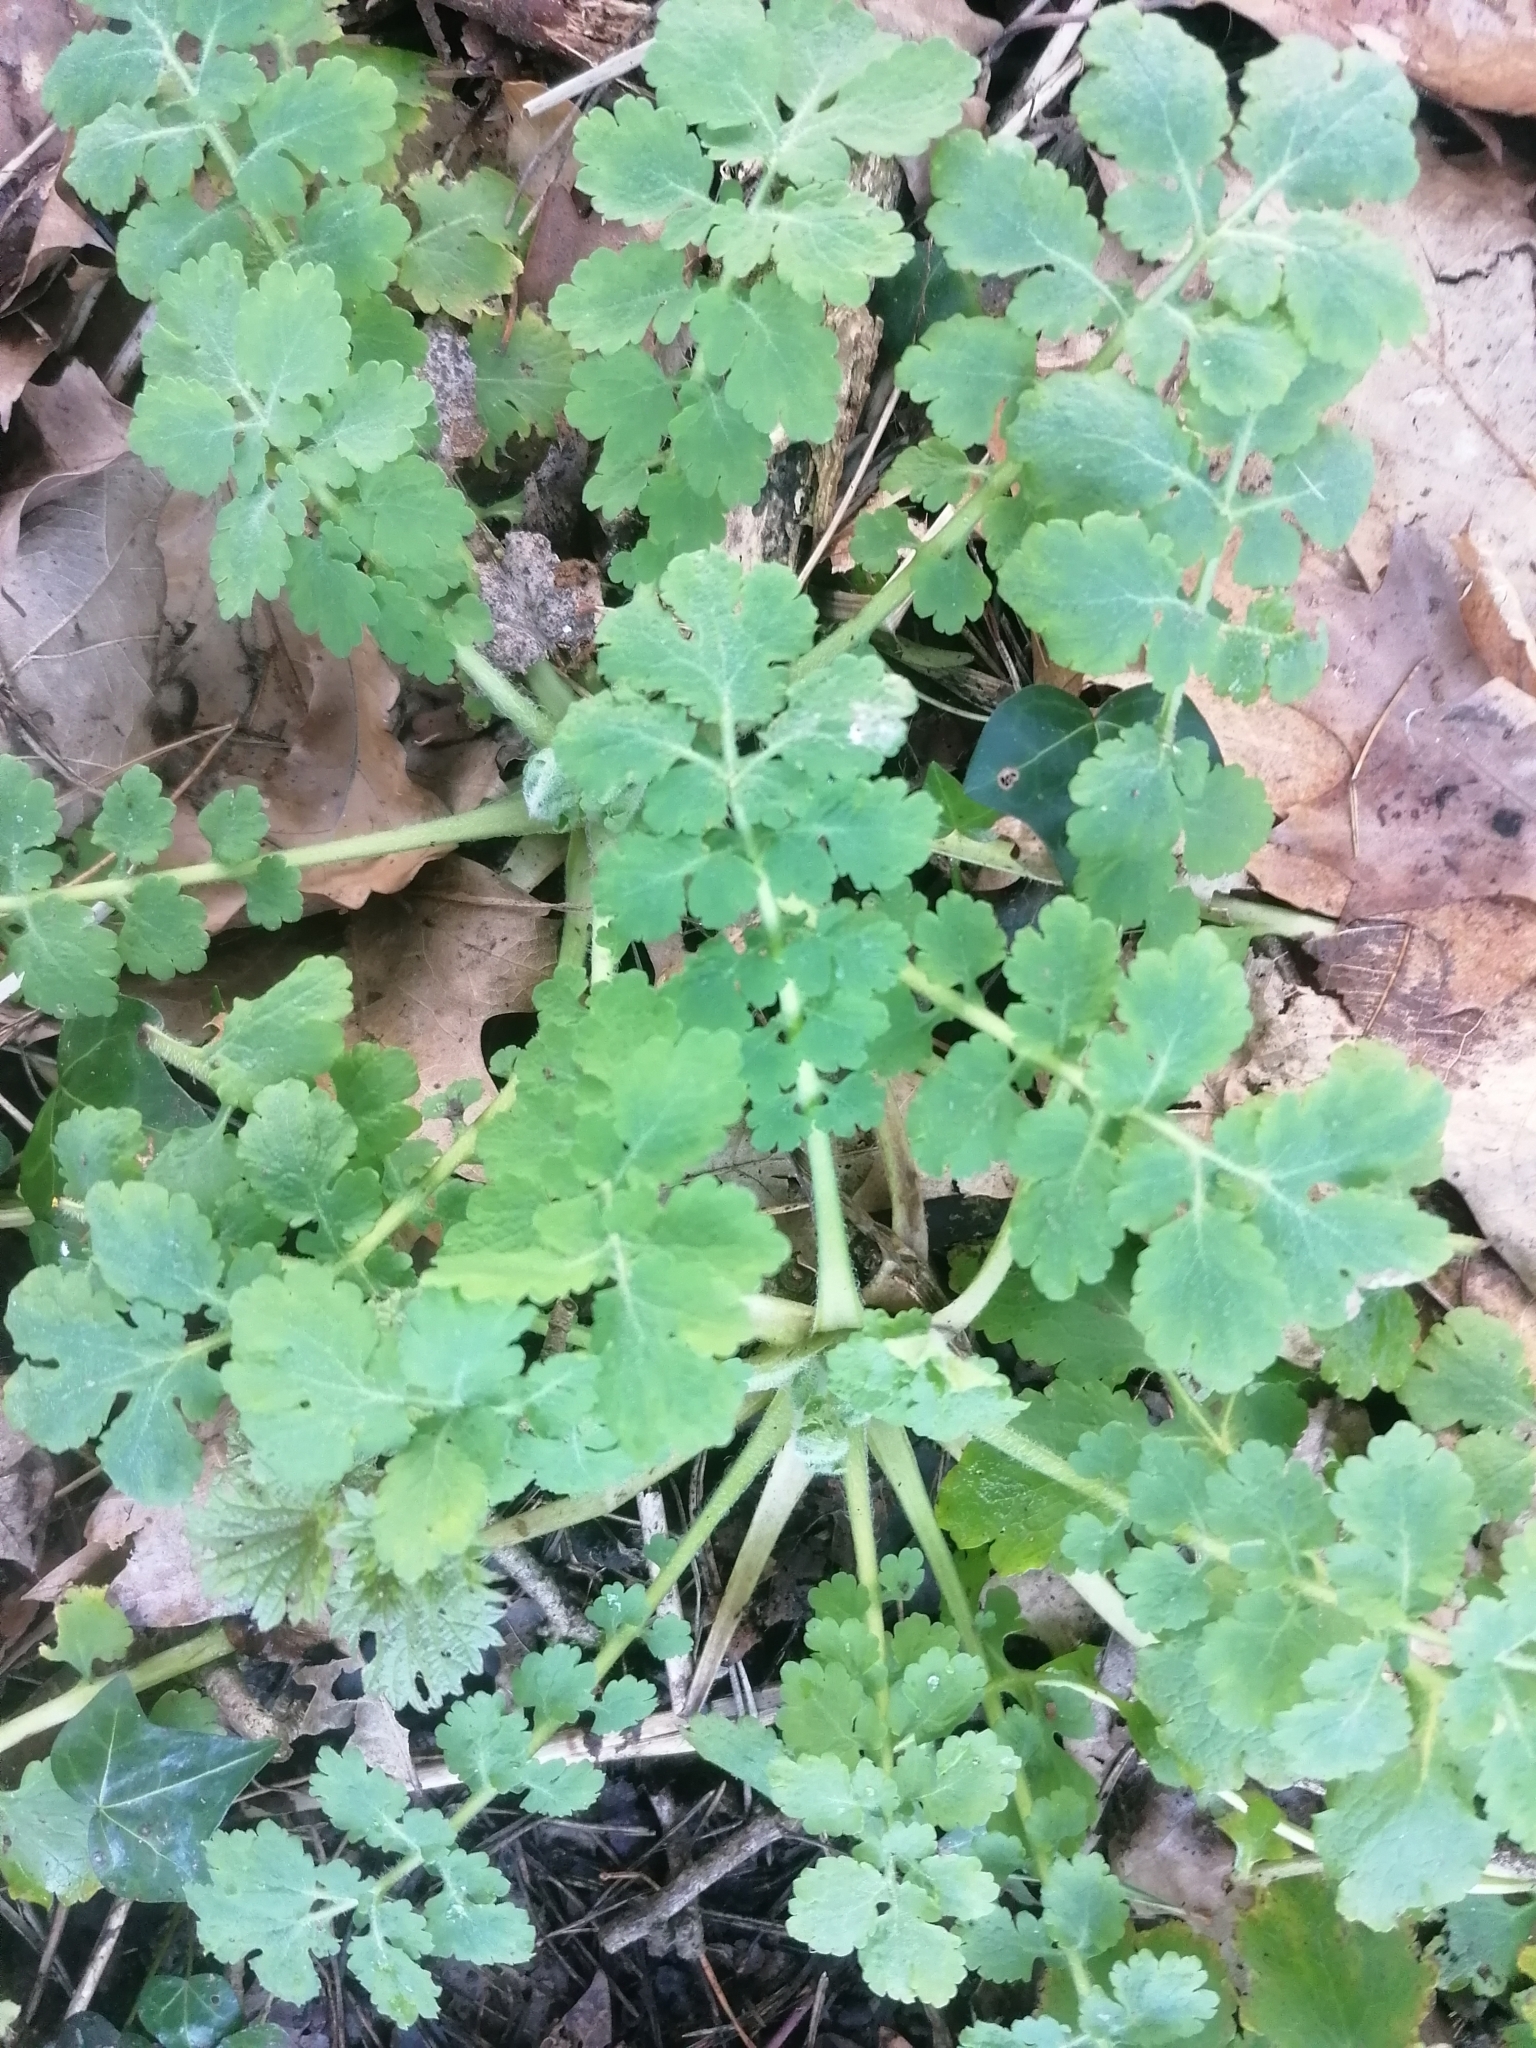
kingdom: Plantae
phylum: Tracheophyta
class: Magnoliopsida
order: Ranunculales
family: Papaveraceae
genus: Chelidonium
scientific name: Chelidonium majus
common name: Greater celandine
